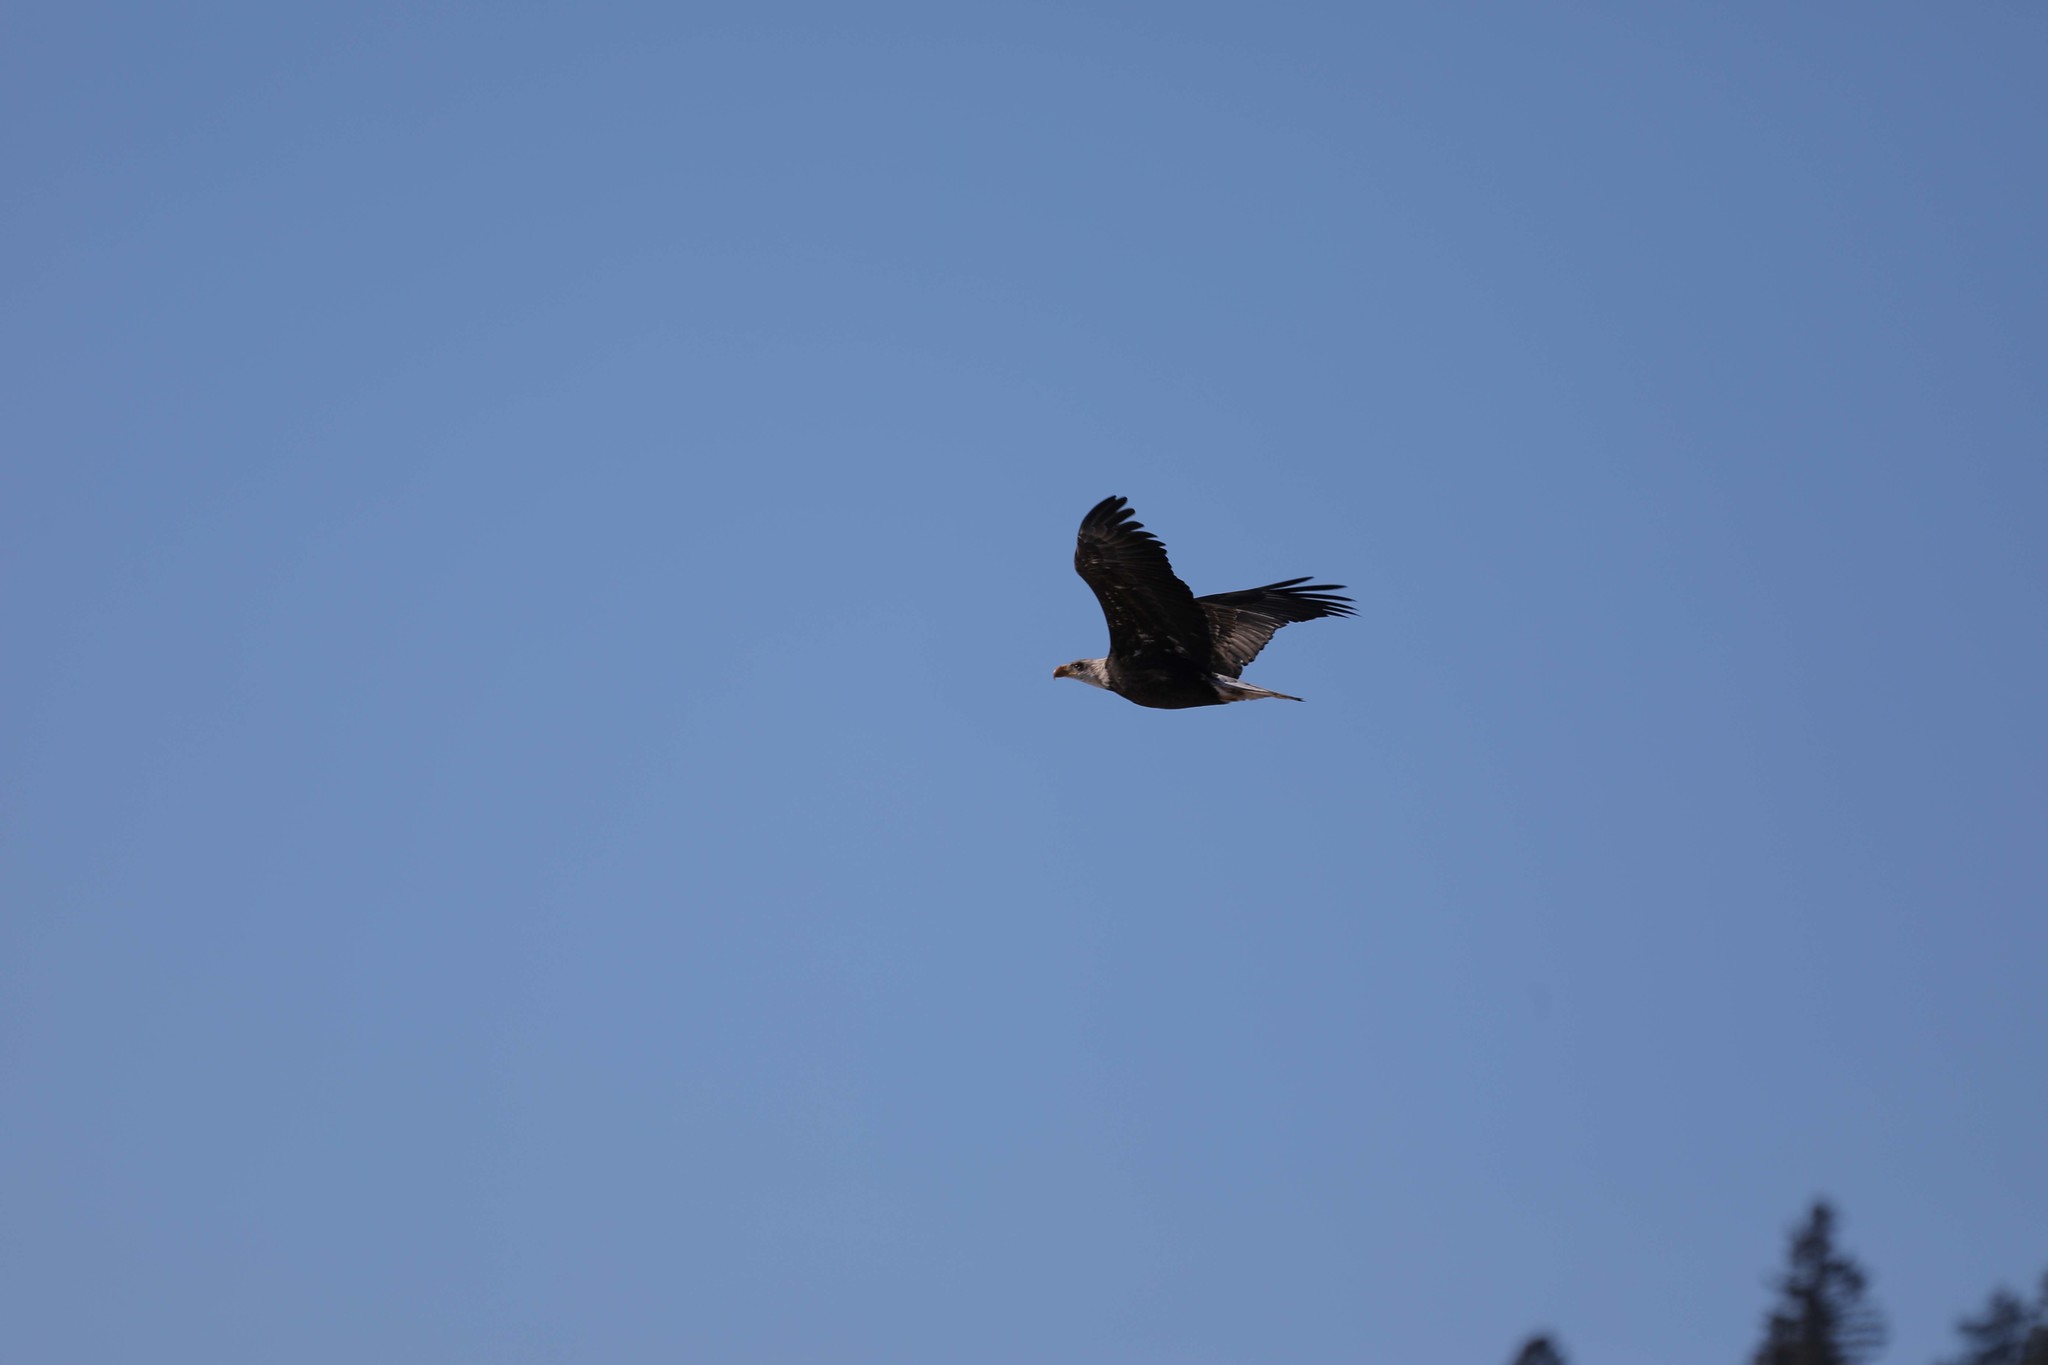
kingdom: Animalia
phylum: Chordata
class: Aves
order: Accipitriformes
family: Accipitridae
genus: Haliaeetus
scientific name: Haliaeetus leucocephalus
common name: Bald eagle
